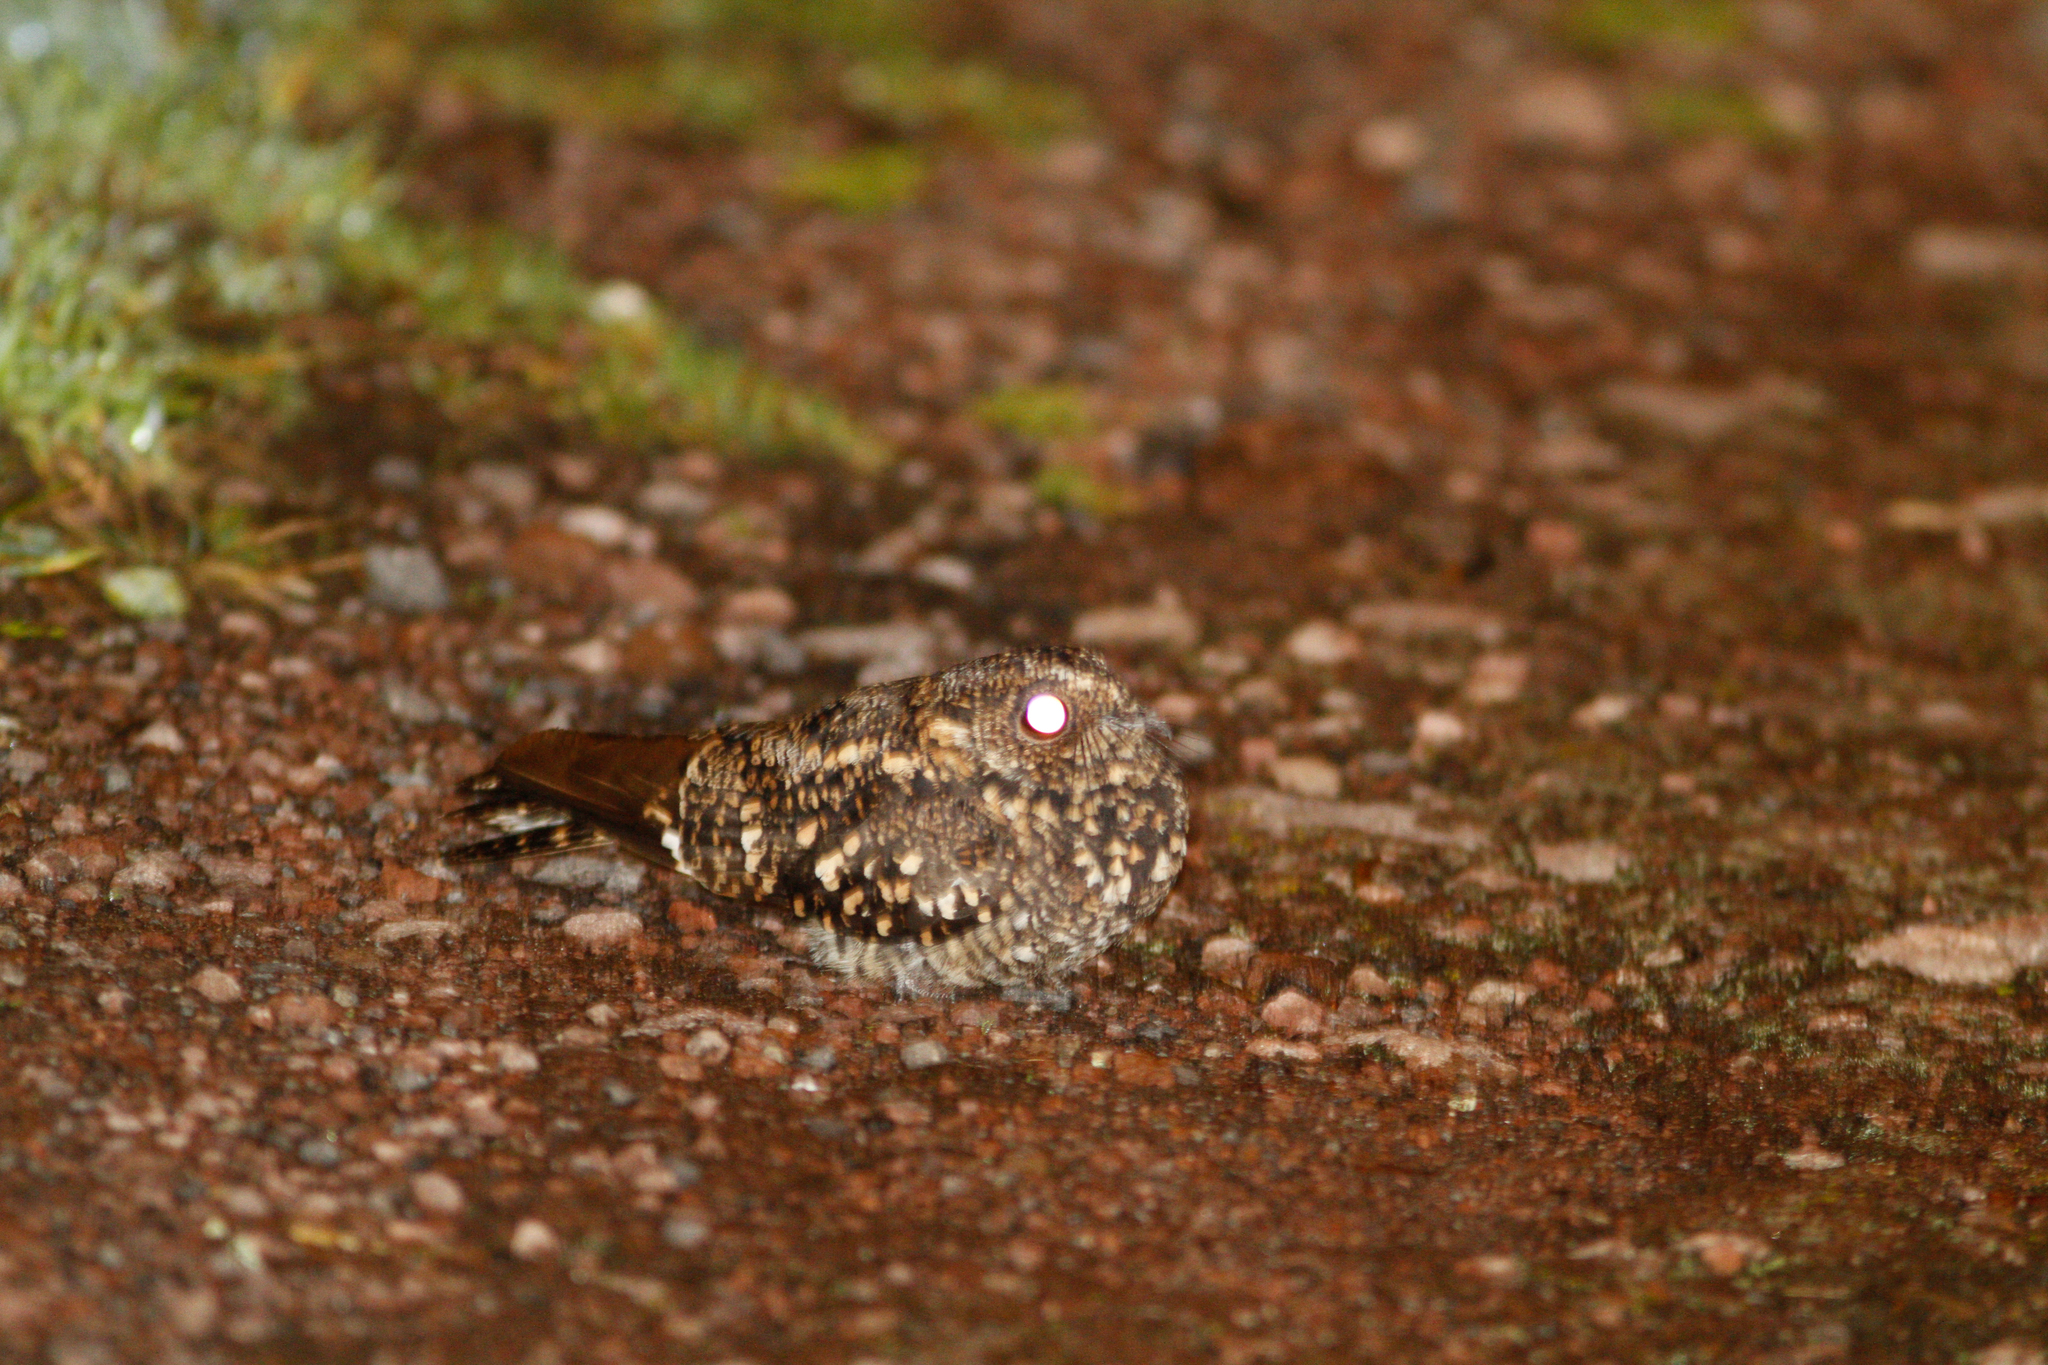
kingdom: Animalia
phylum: Chordata
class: Aves
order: Caprimulgiformes
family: Caprimulgidae
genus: Systellura
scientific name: Systellura longirostris
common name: Band-winged nightjar
